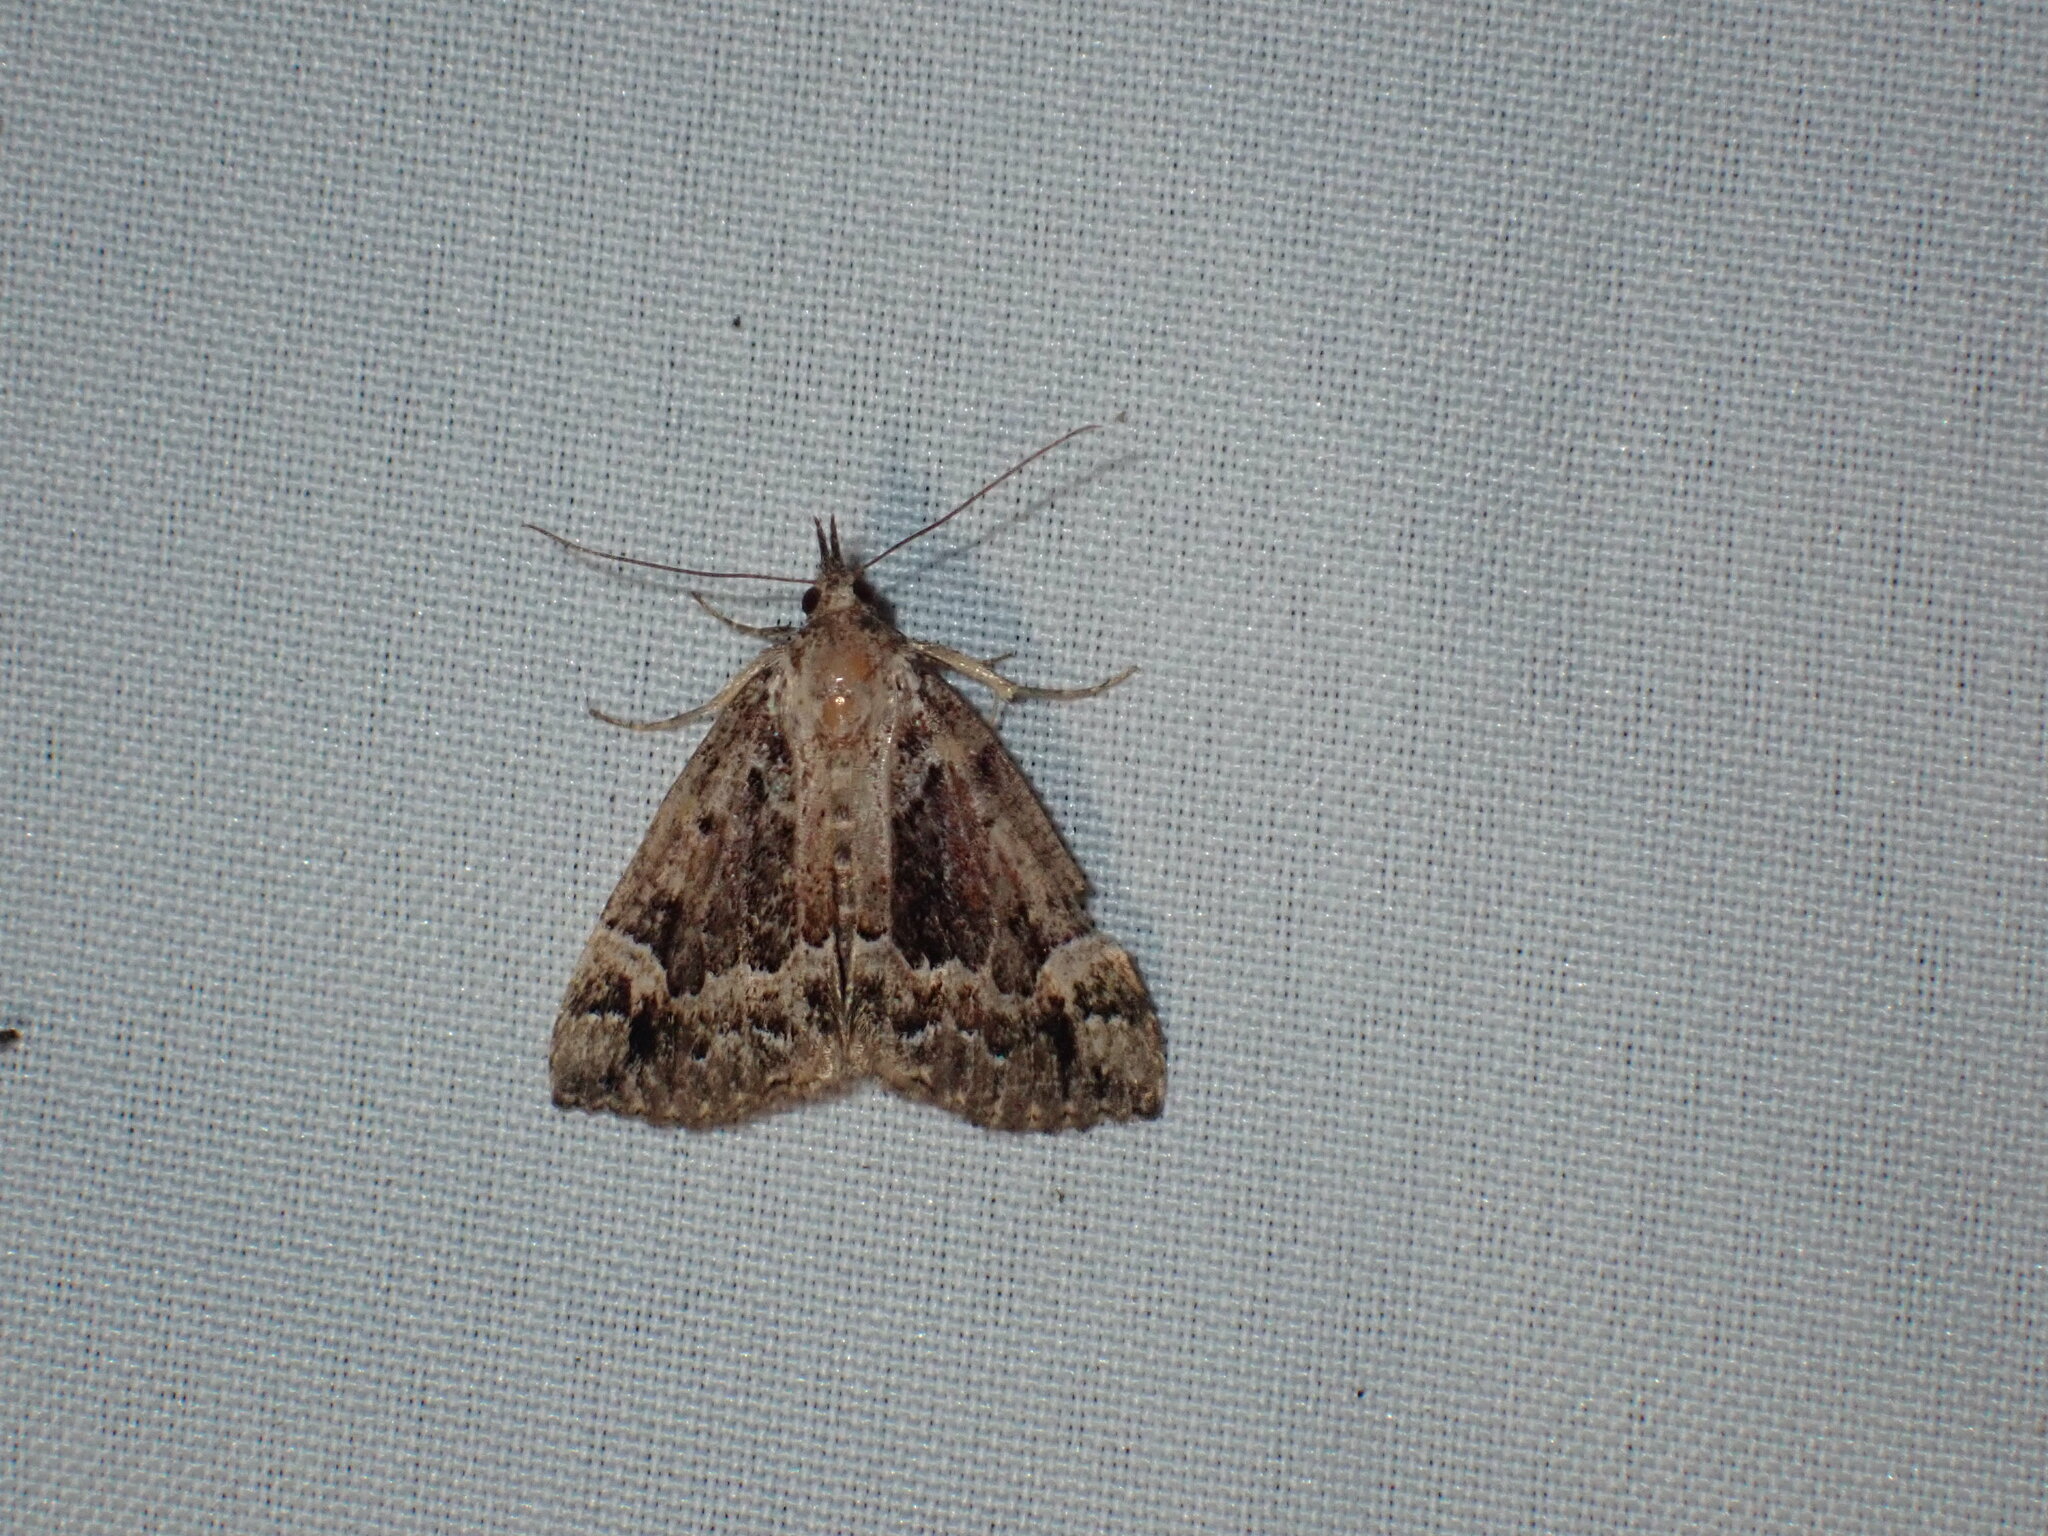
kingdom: Animalia
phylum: Arthropoda
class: Insecta
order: Lepidoptera
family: Erebidae
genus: Hypena
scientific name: Hypena palparia
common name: Mottled bomolocha moth
